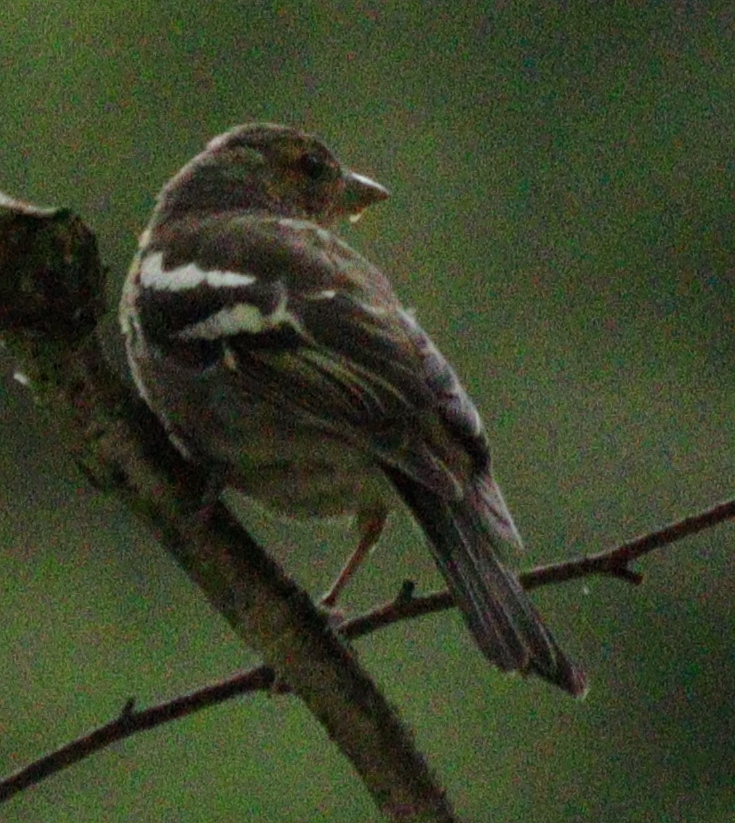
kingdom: Animalia
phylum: Chordata
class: Aves
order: Passeriformes
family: Fringillidae
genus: Fringilla
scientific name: Fringilla coelebs
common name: Common chaffinch
